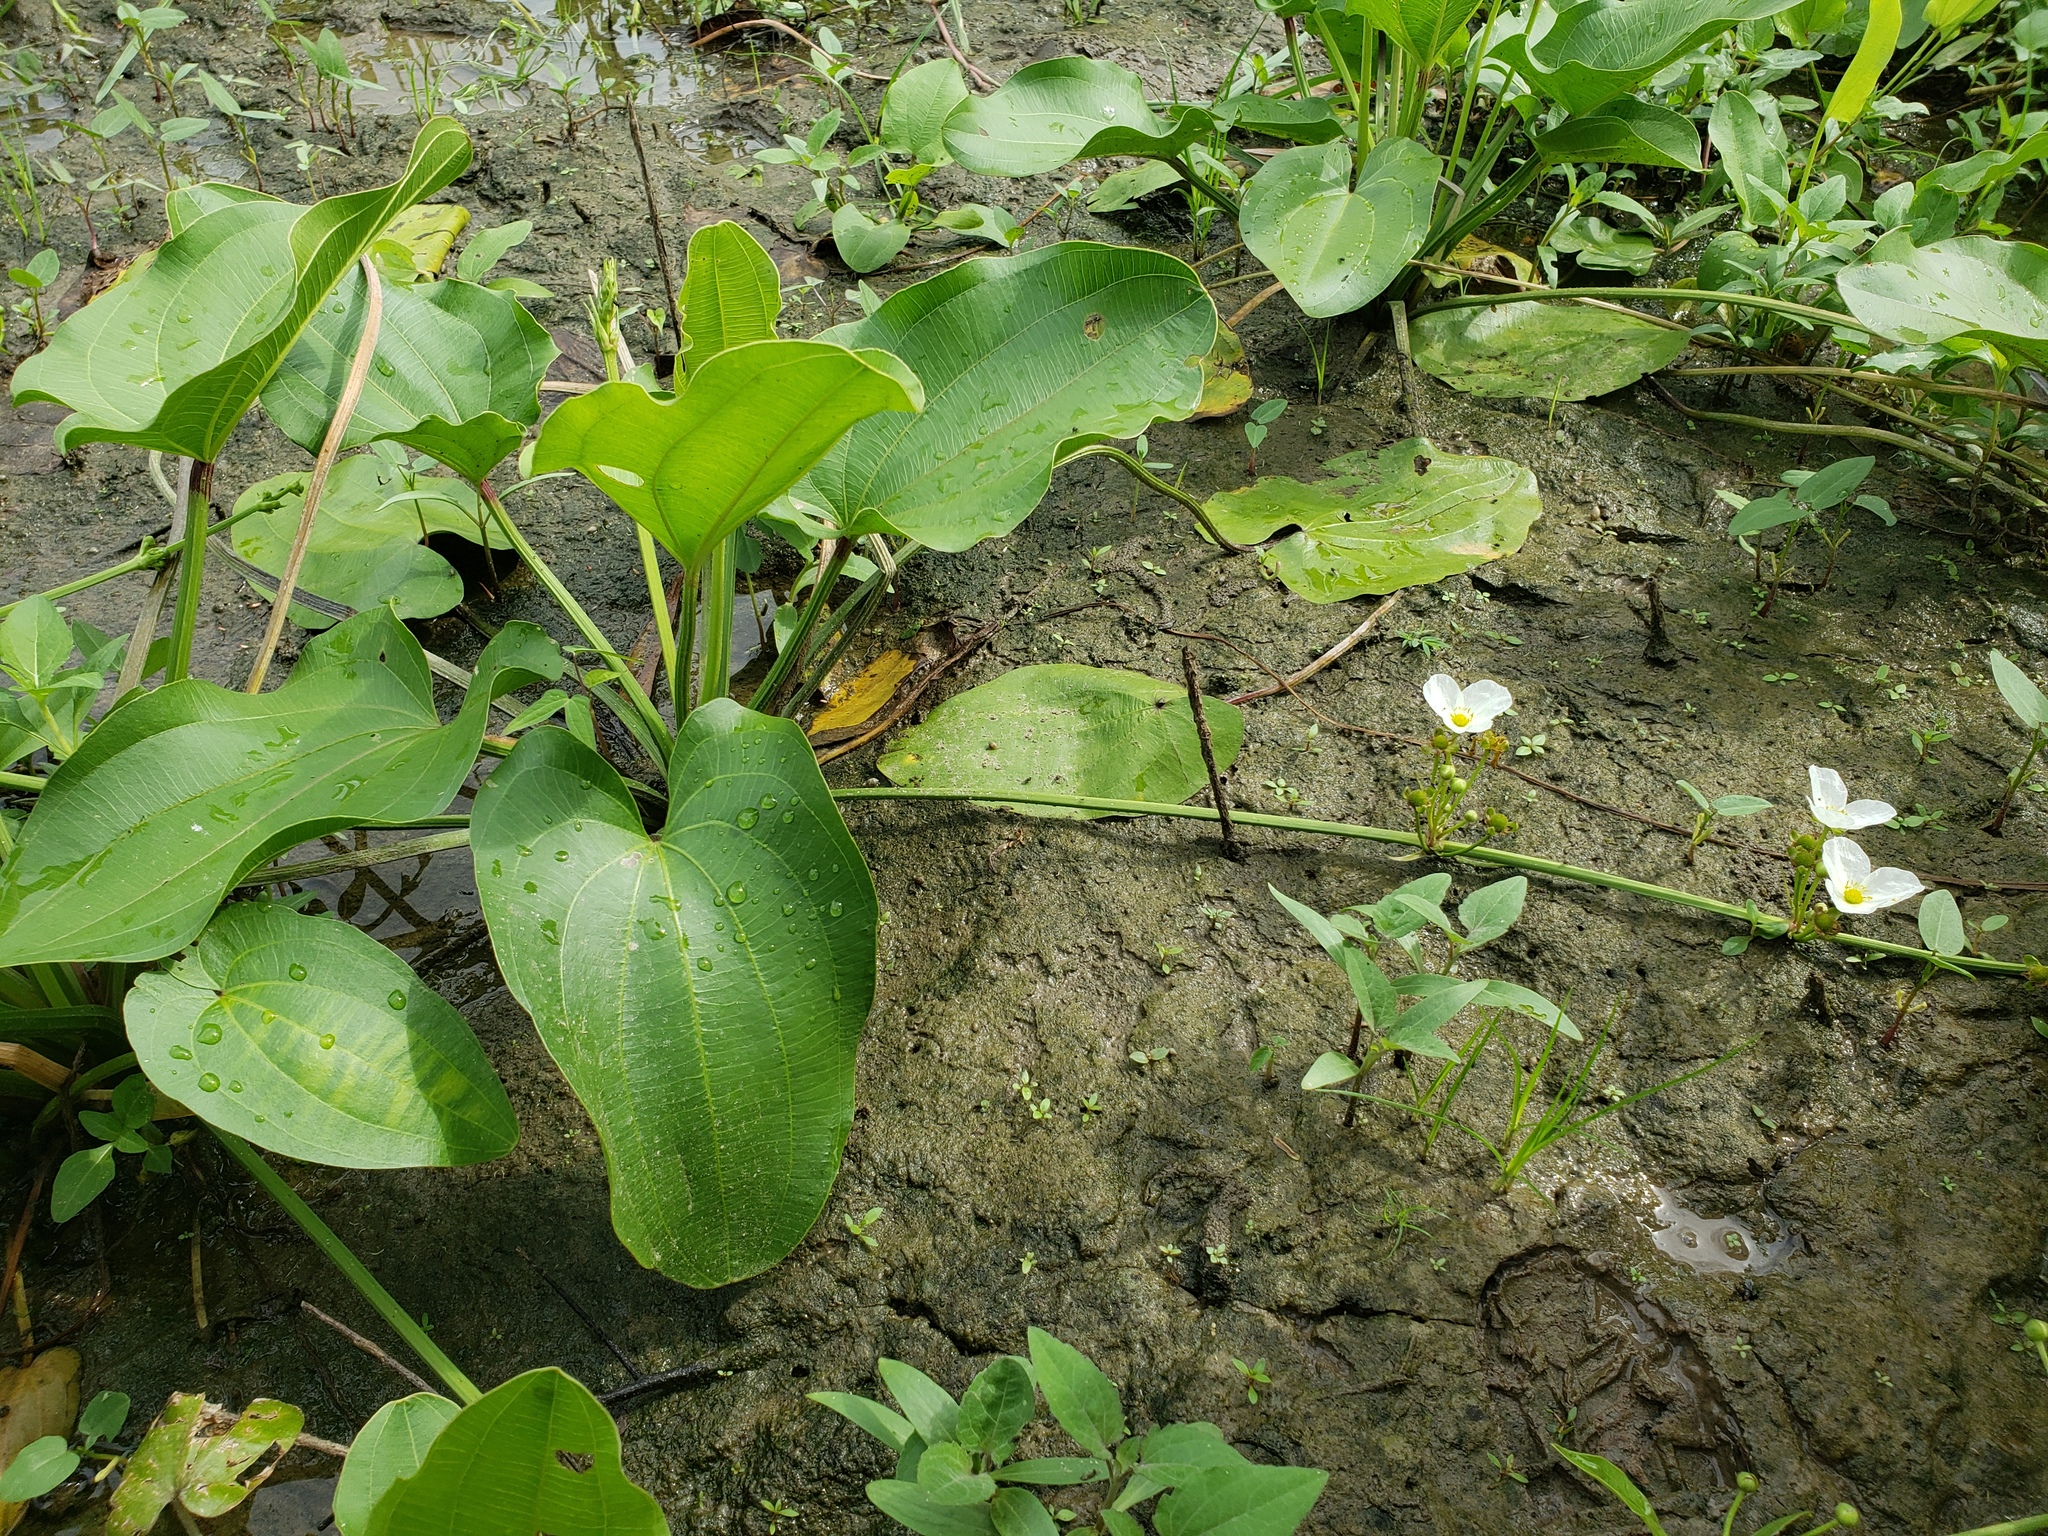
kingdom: Plantae
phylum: Tracheophyta
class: Liliopsida
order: Alismatales
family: Alismataceae
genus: Aquarius
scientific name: Aquarius cordifolius
